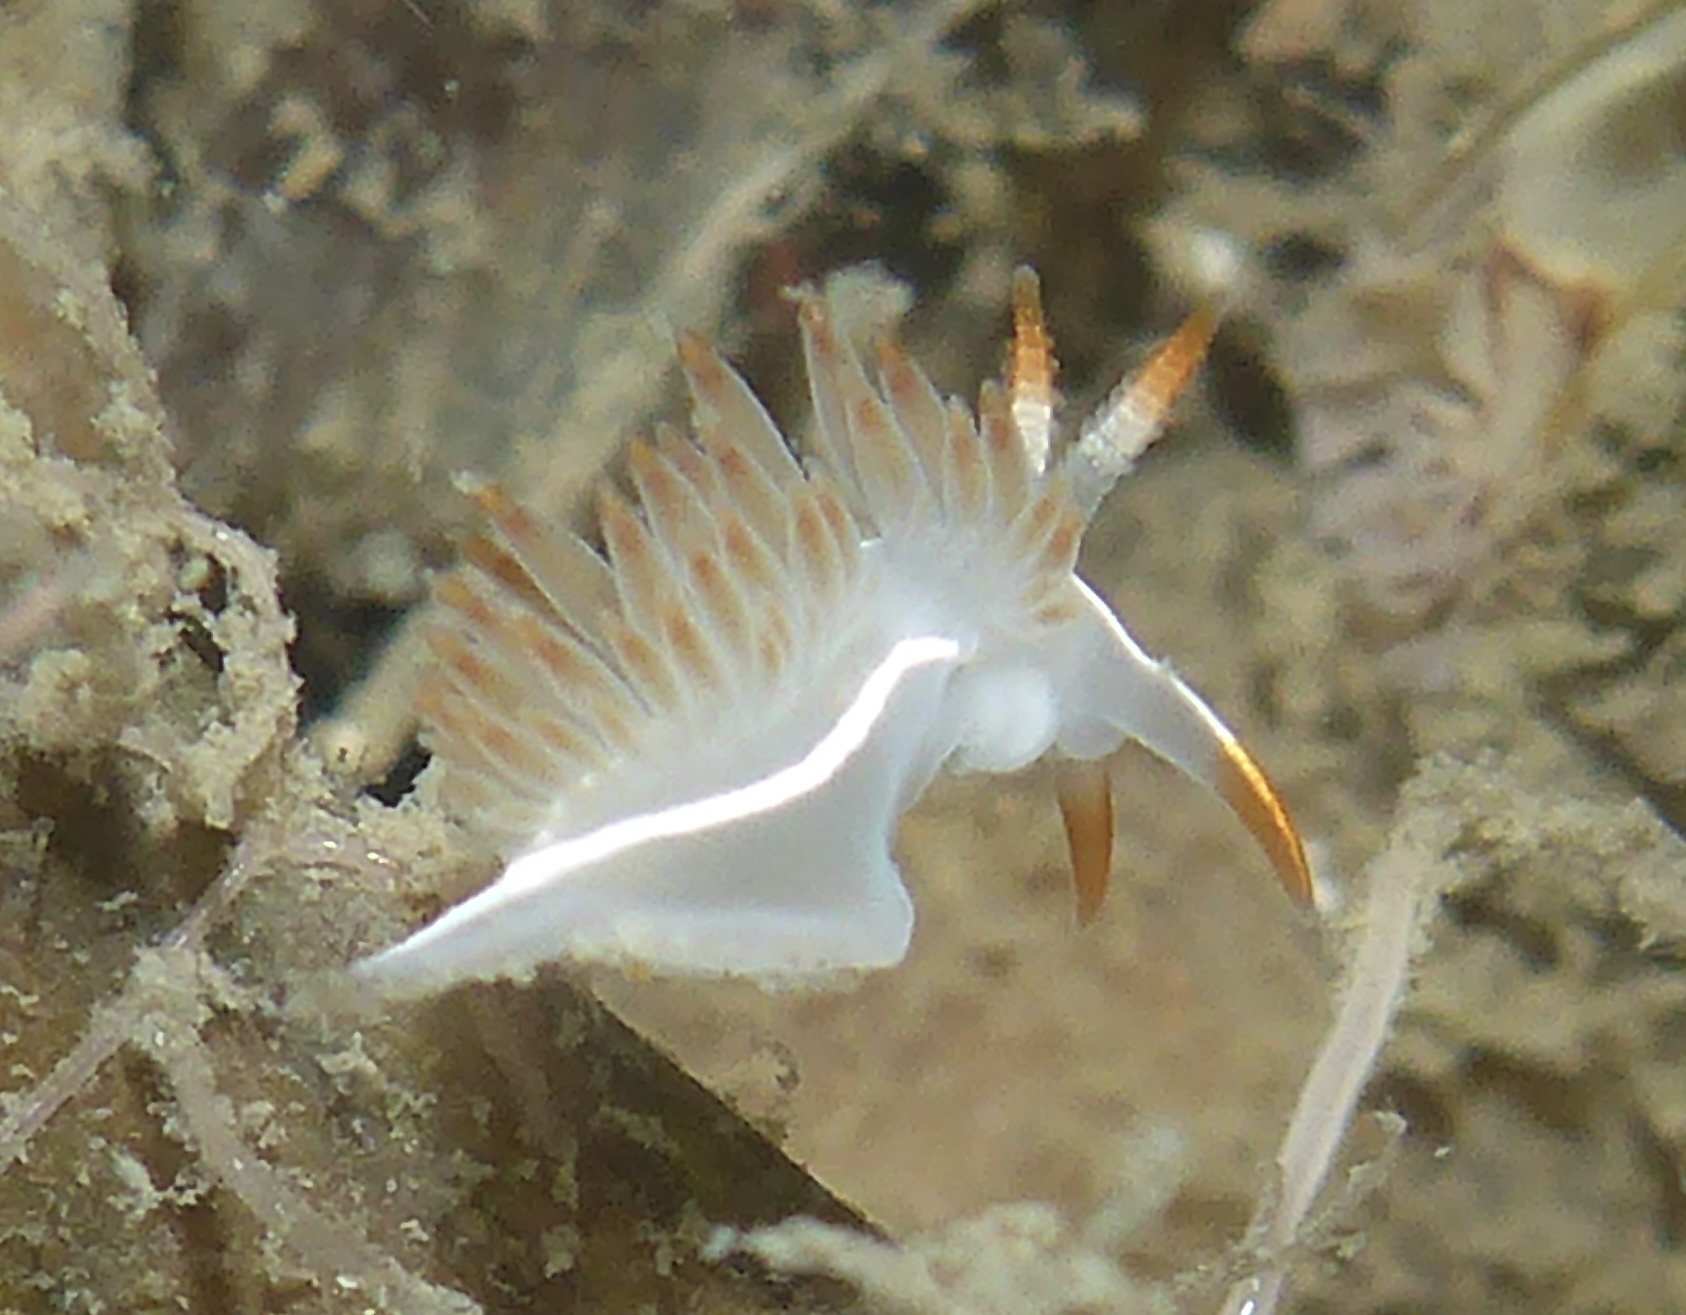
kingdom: Animalia
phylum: Mollusca
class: Gastropoda
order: Nudibranchia
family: Coryphellidae
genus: Coryphella
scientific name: Coryphella trilineata
